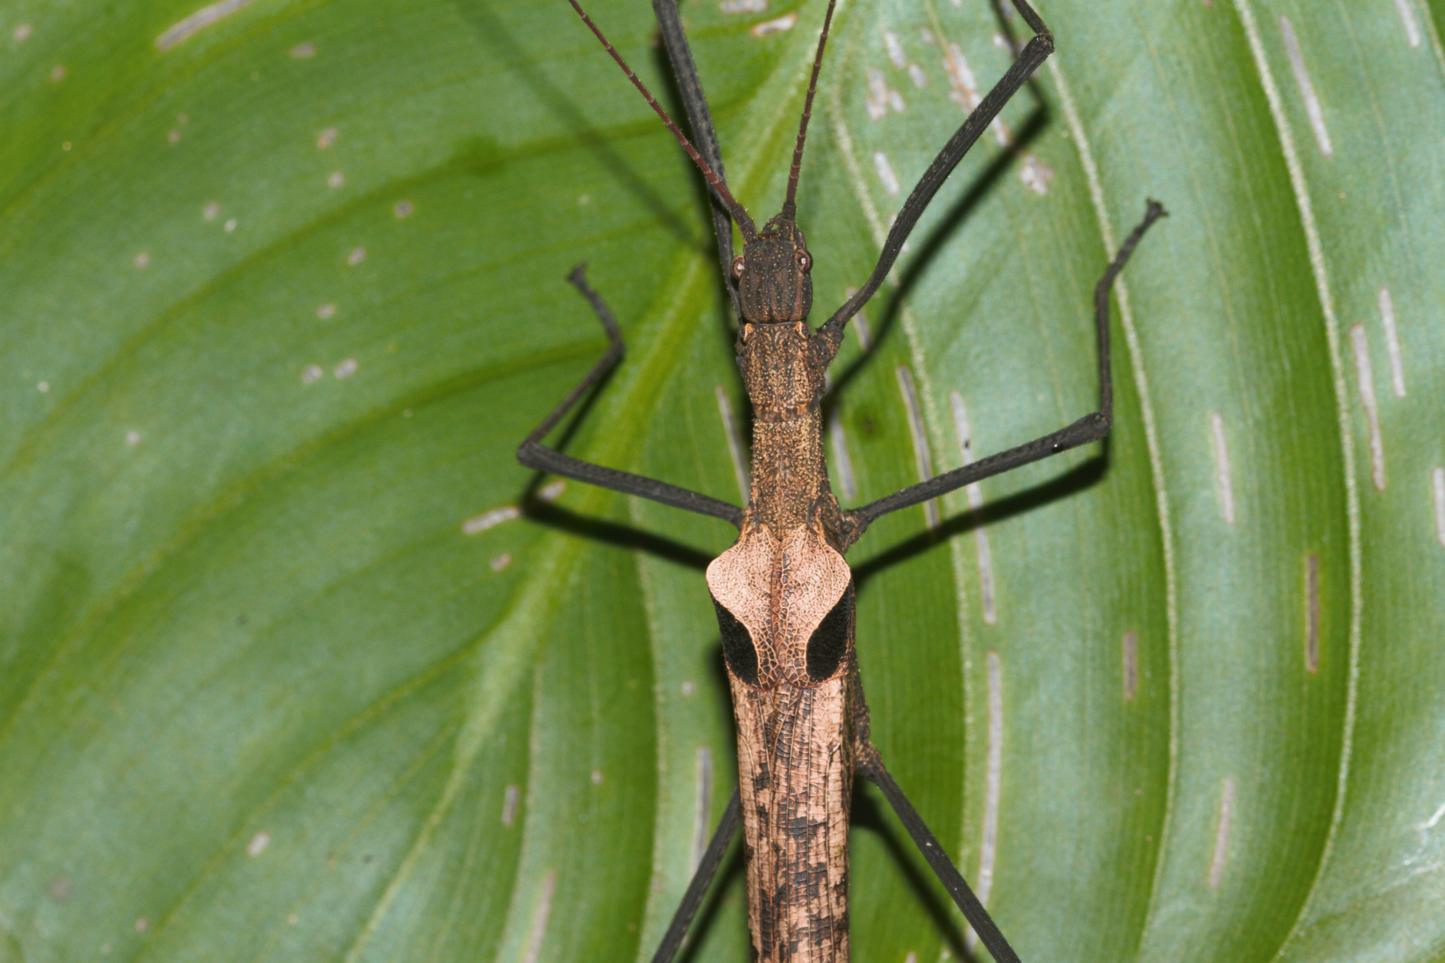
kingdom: Animalia
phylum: Arthropoda
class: Insecta
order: Phasmida
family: Pseudophasmatidae
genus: Pseudophasma
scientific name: Pseudophasma phthisicum
